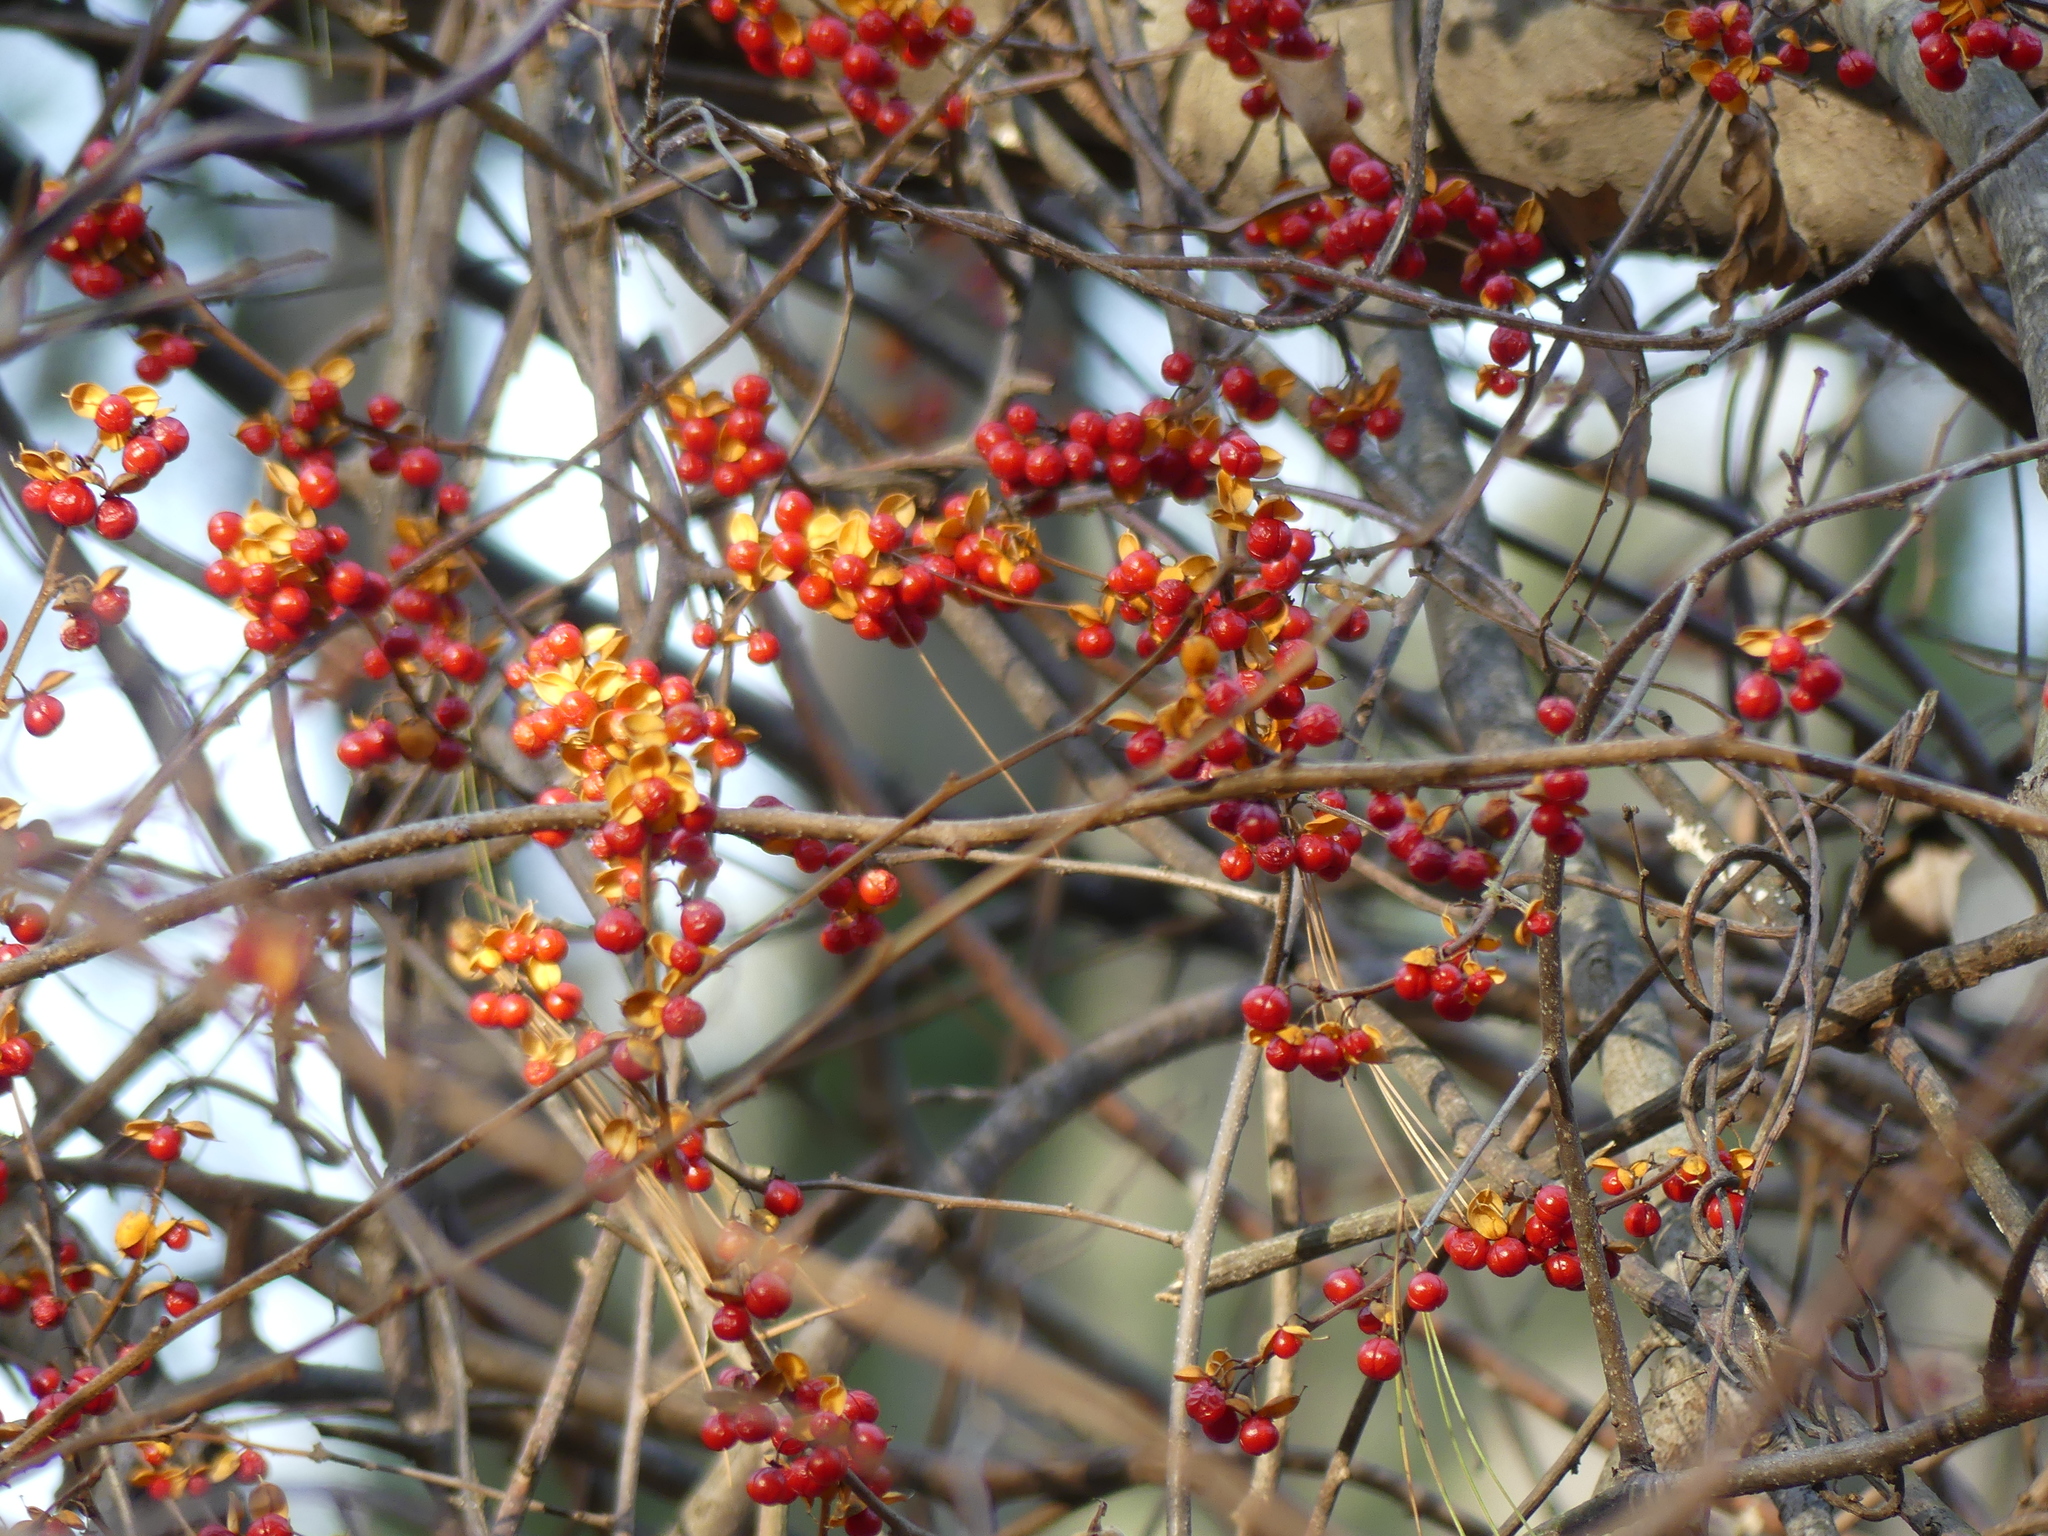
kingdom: Plantae
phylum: Tracheophyta
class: Magnoliopsida
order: Celastrales
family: Celastraceae
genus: Celastrus
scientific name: Celastrus orbiculatus
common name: Oriental bittersweet
